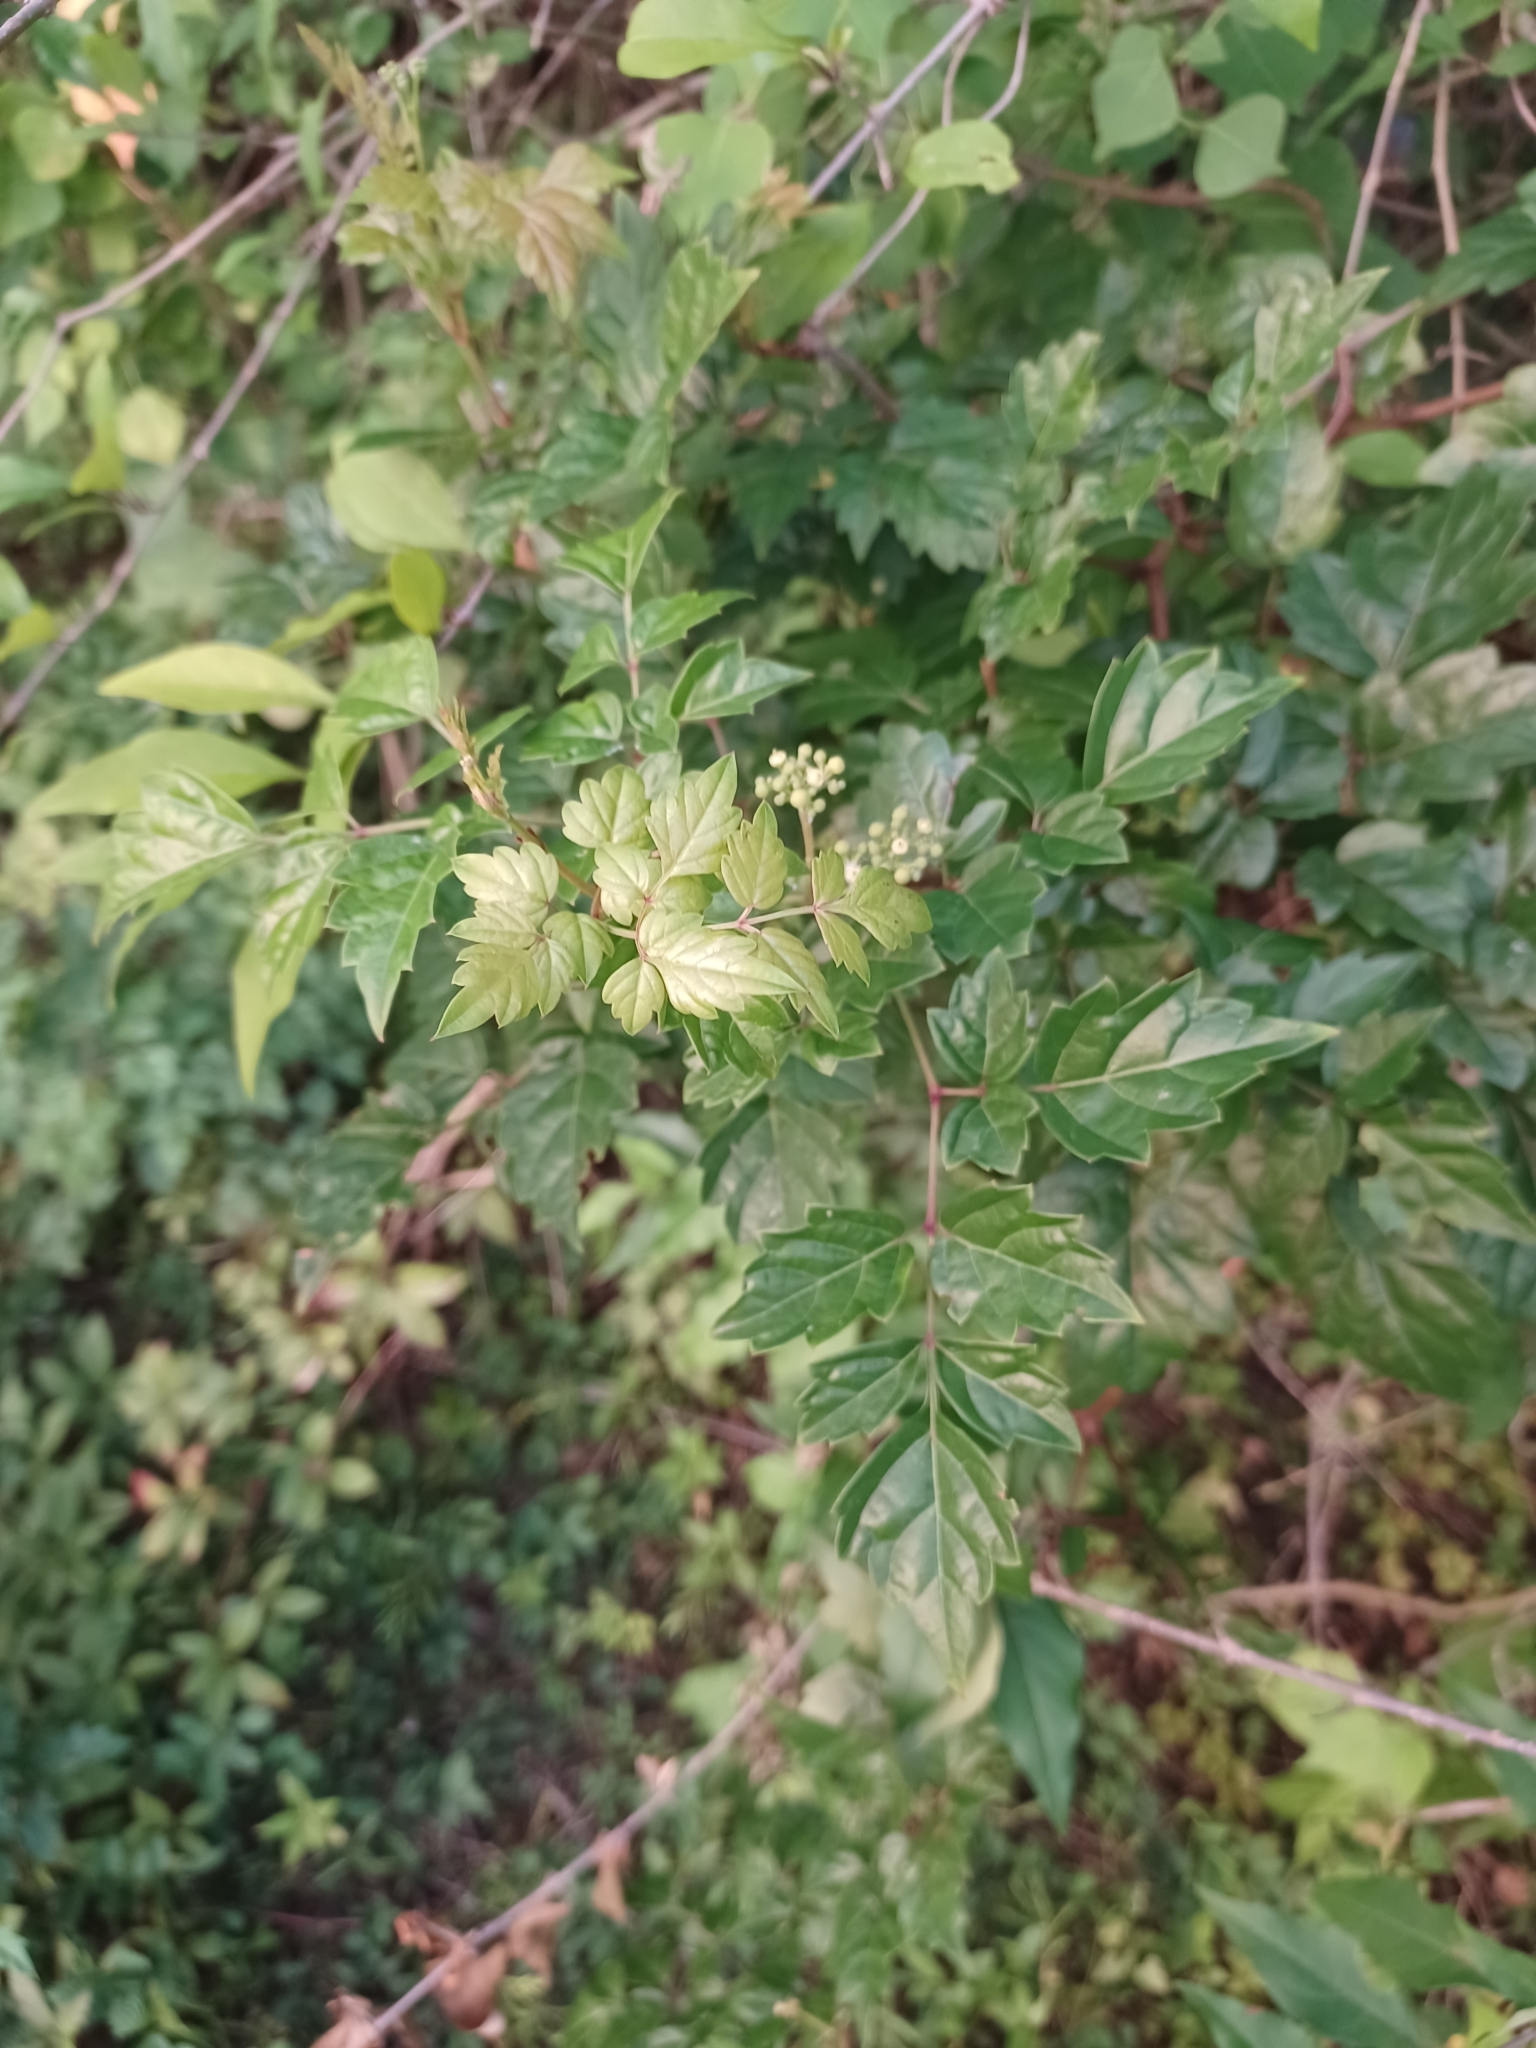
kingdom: Plantae
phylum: Tracheophyta
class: Magnoliopsida
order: Vitales
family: Vitaceae
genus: Nekemias
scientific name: Nekemias arborea
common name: Peppervine
